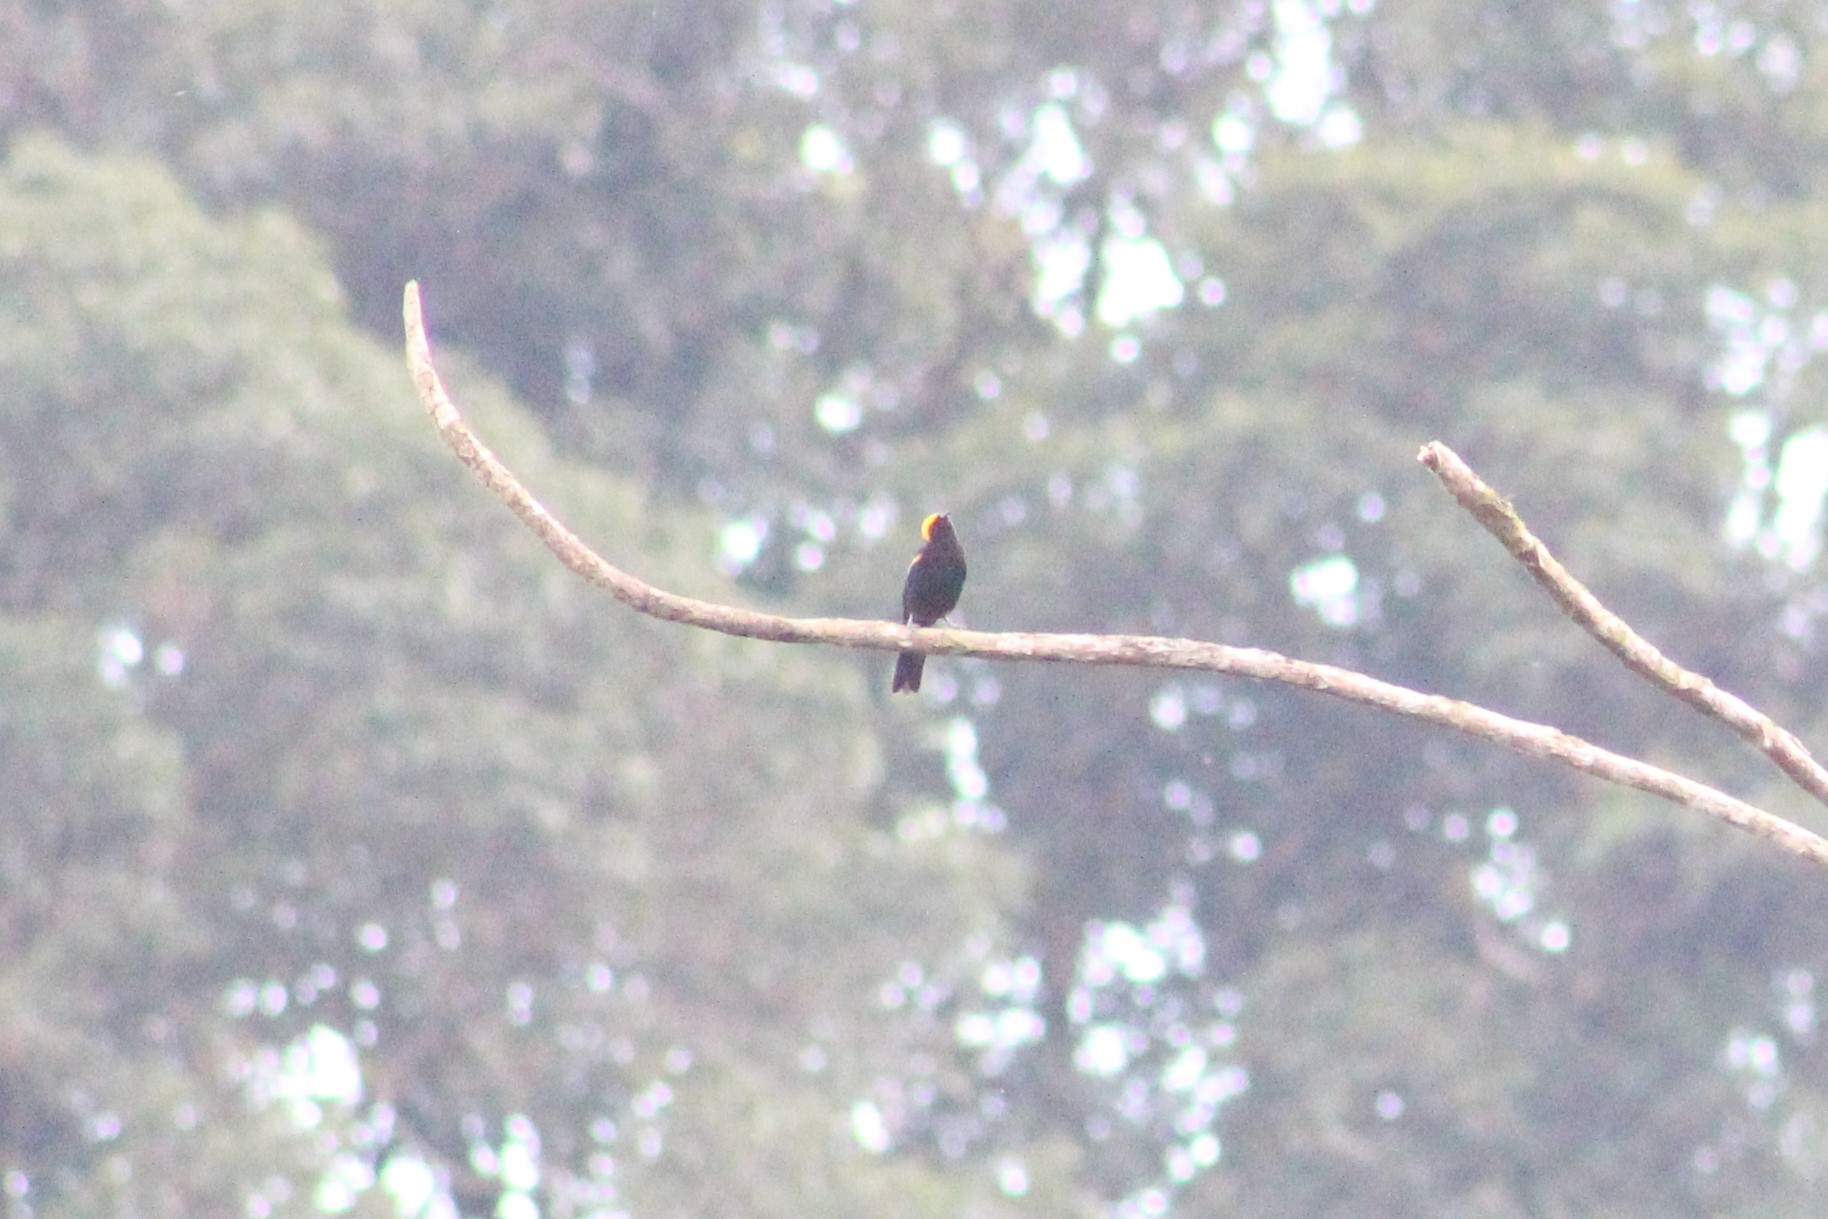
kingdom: Animalia
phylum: Chordata
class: Aves
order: Passeriformes
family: Icteridae
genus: Icterus
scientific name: Icterus cayanensis
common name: Epaulet oriole
